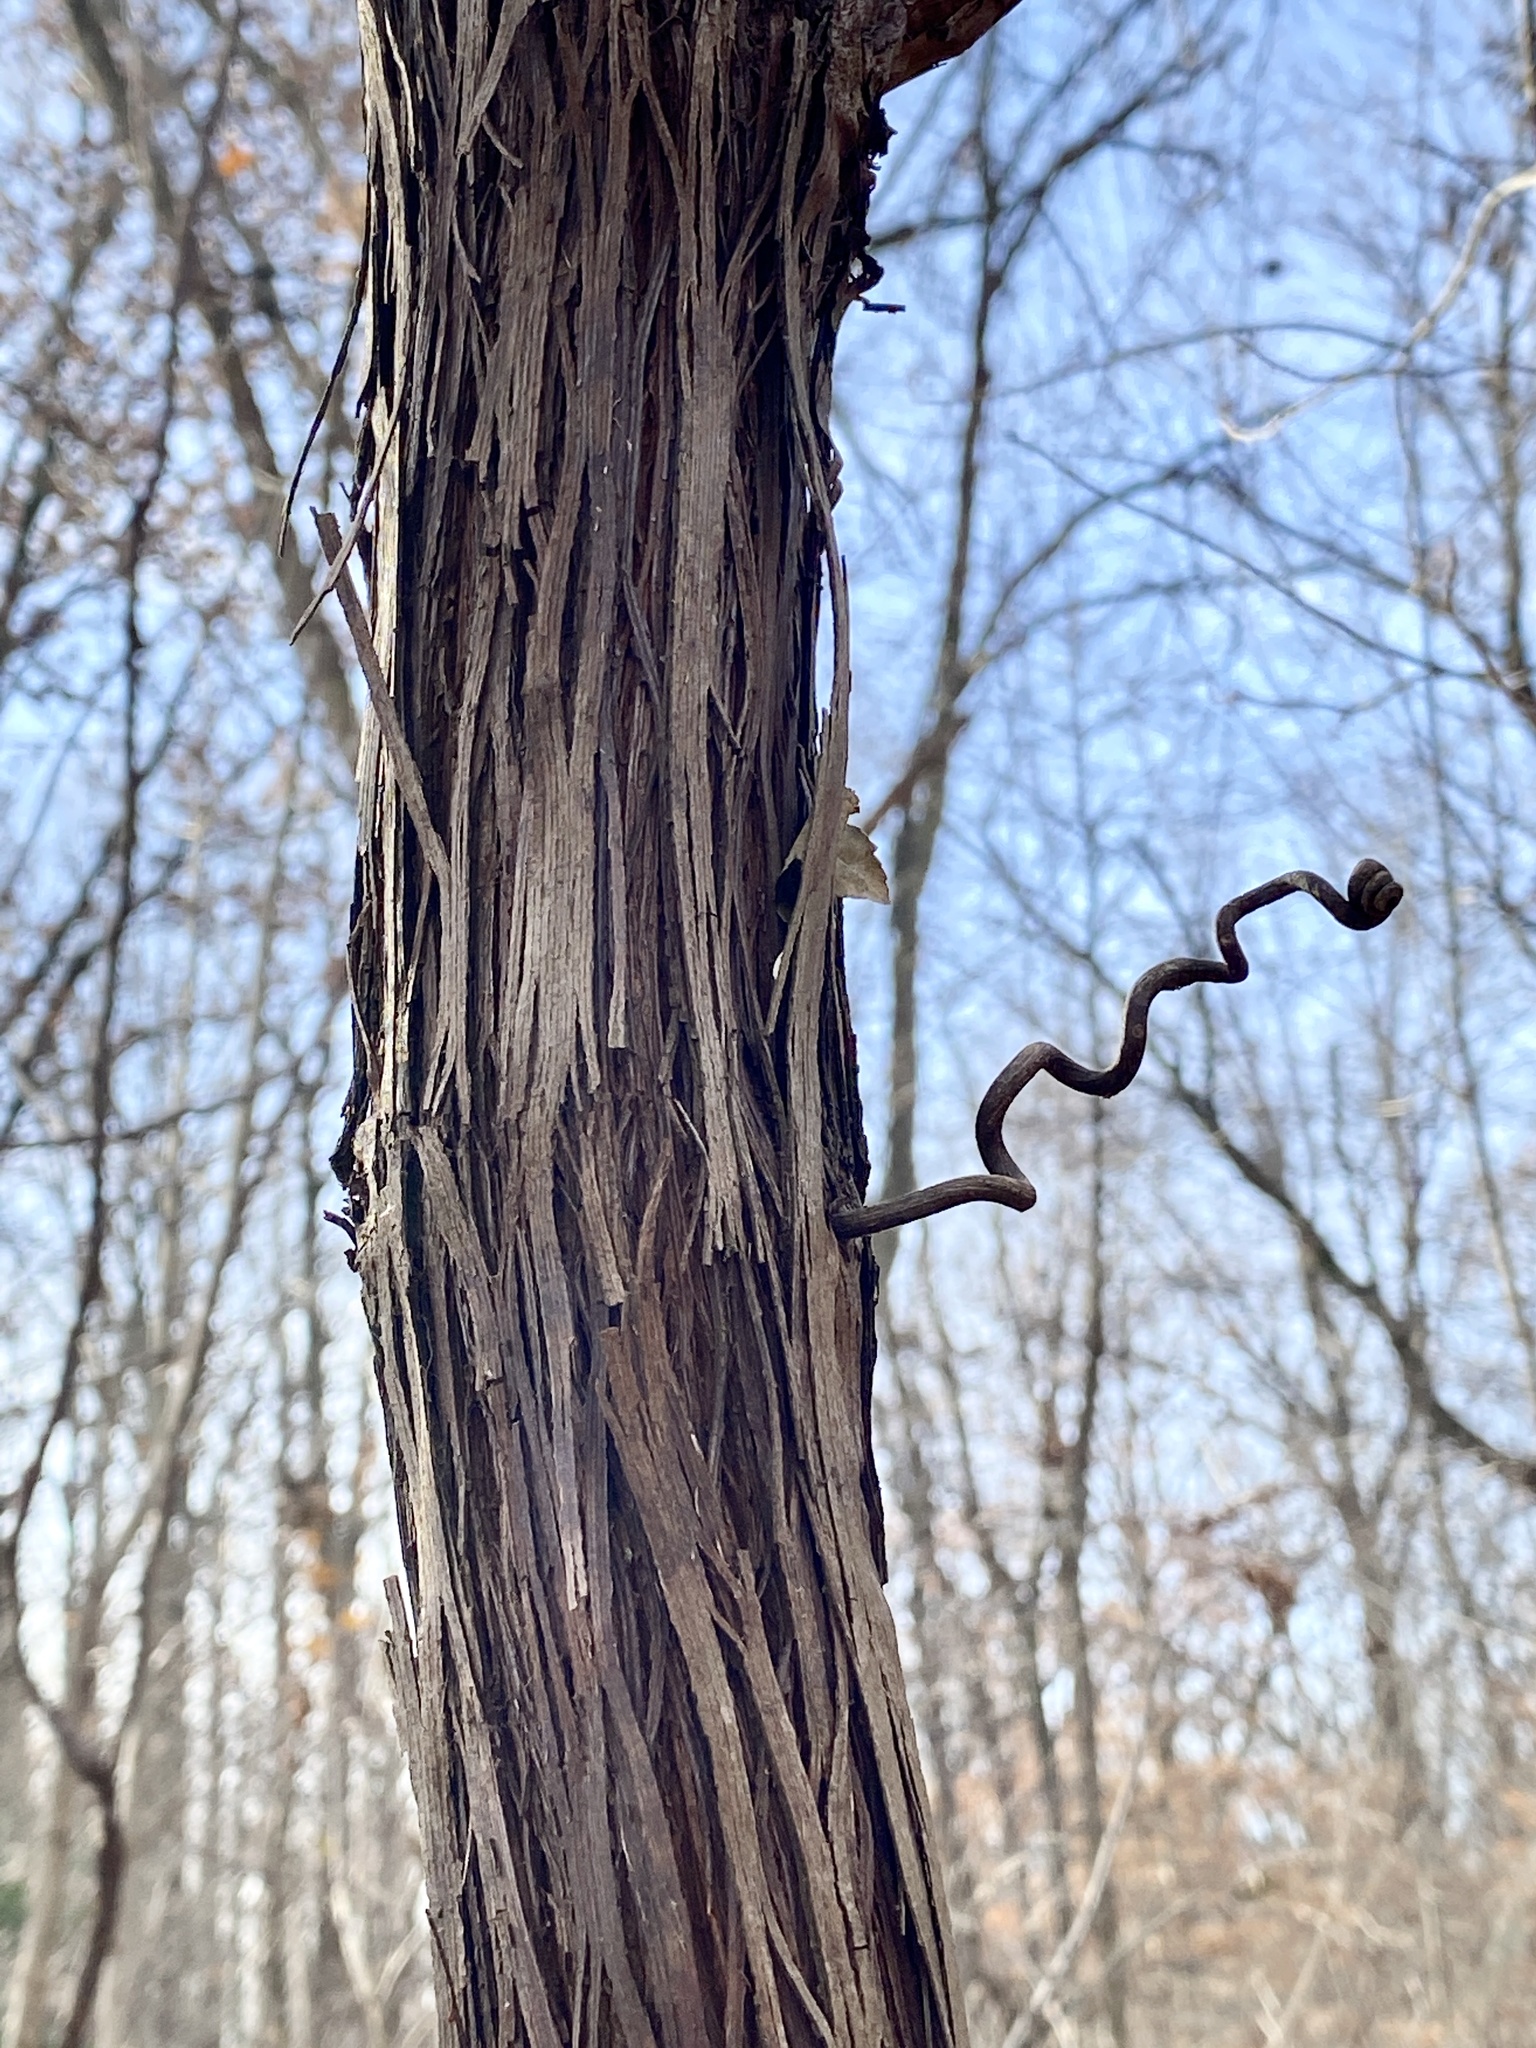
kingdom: Plantae
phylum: Tracheophyta
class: Magnoliopsida
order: Vitales
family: Vitaceae
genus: Vitis
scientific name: Vitis
